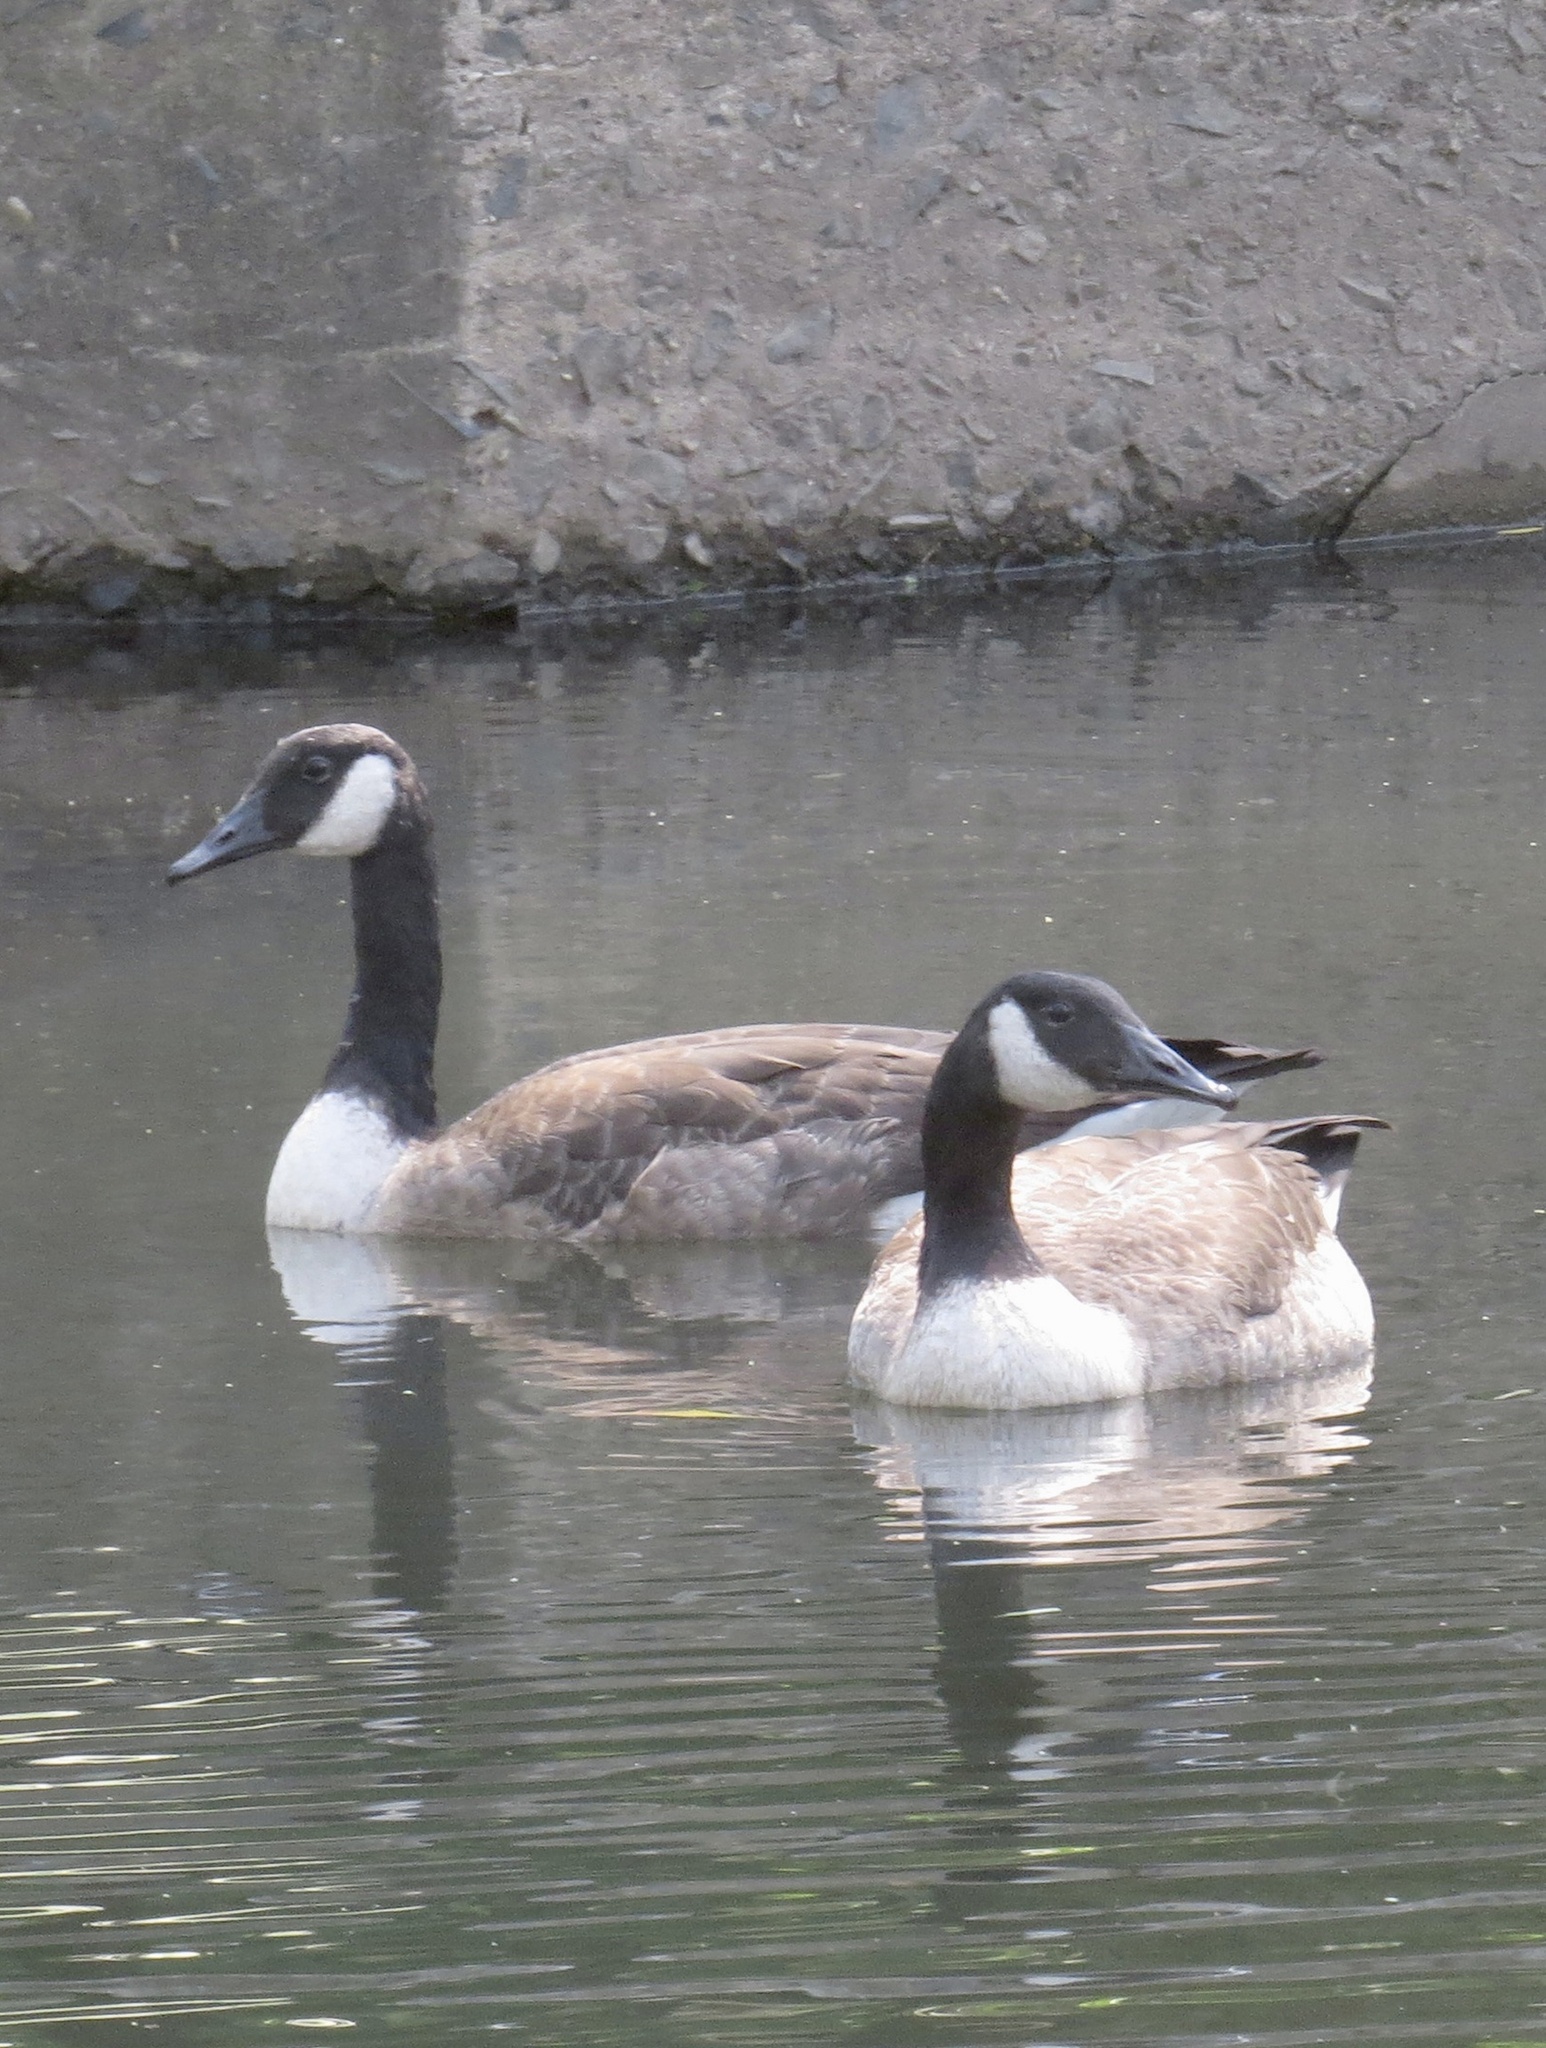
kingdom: Animalia
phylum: Chordata
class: Aves
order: Anseriformes
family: Anatidae
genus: Branta
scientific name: Branta canadensis
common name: Canada goose
